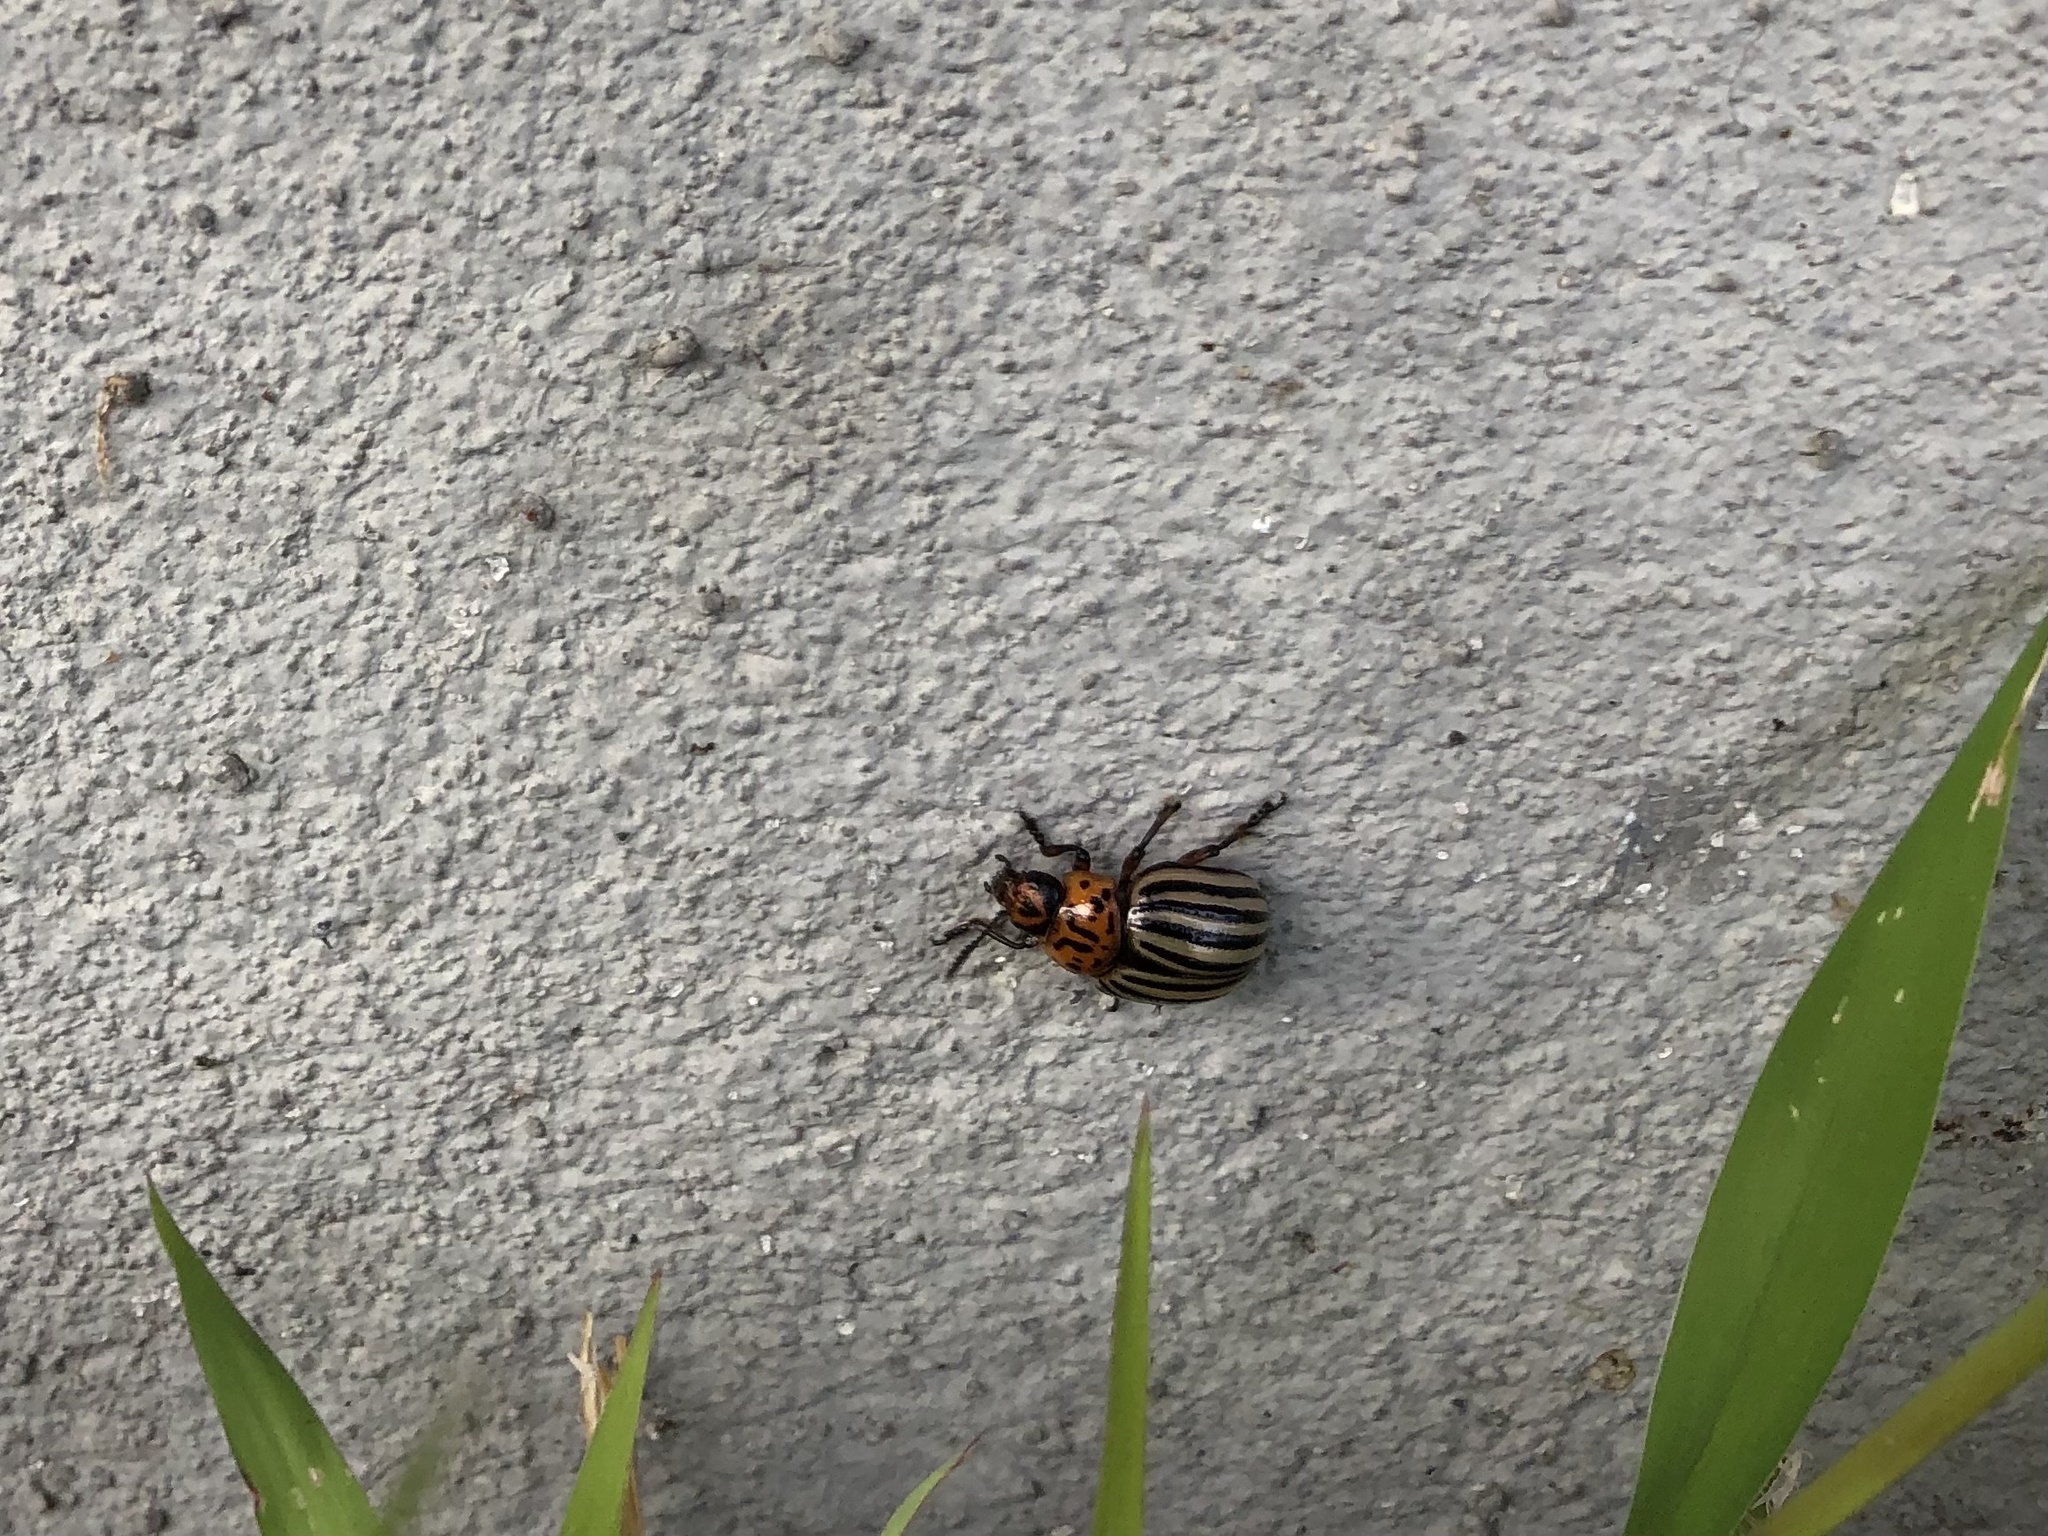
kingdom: Animalia
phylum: Arthropoda
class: Insecta
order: Coleoptera
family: Chrysomelidae
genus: Leptinotarsa
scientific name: Leptinotarsa decemlineata
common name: Colorado potato beetle
